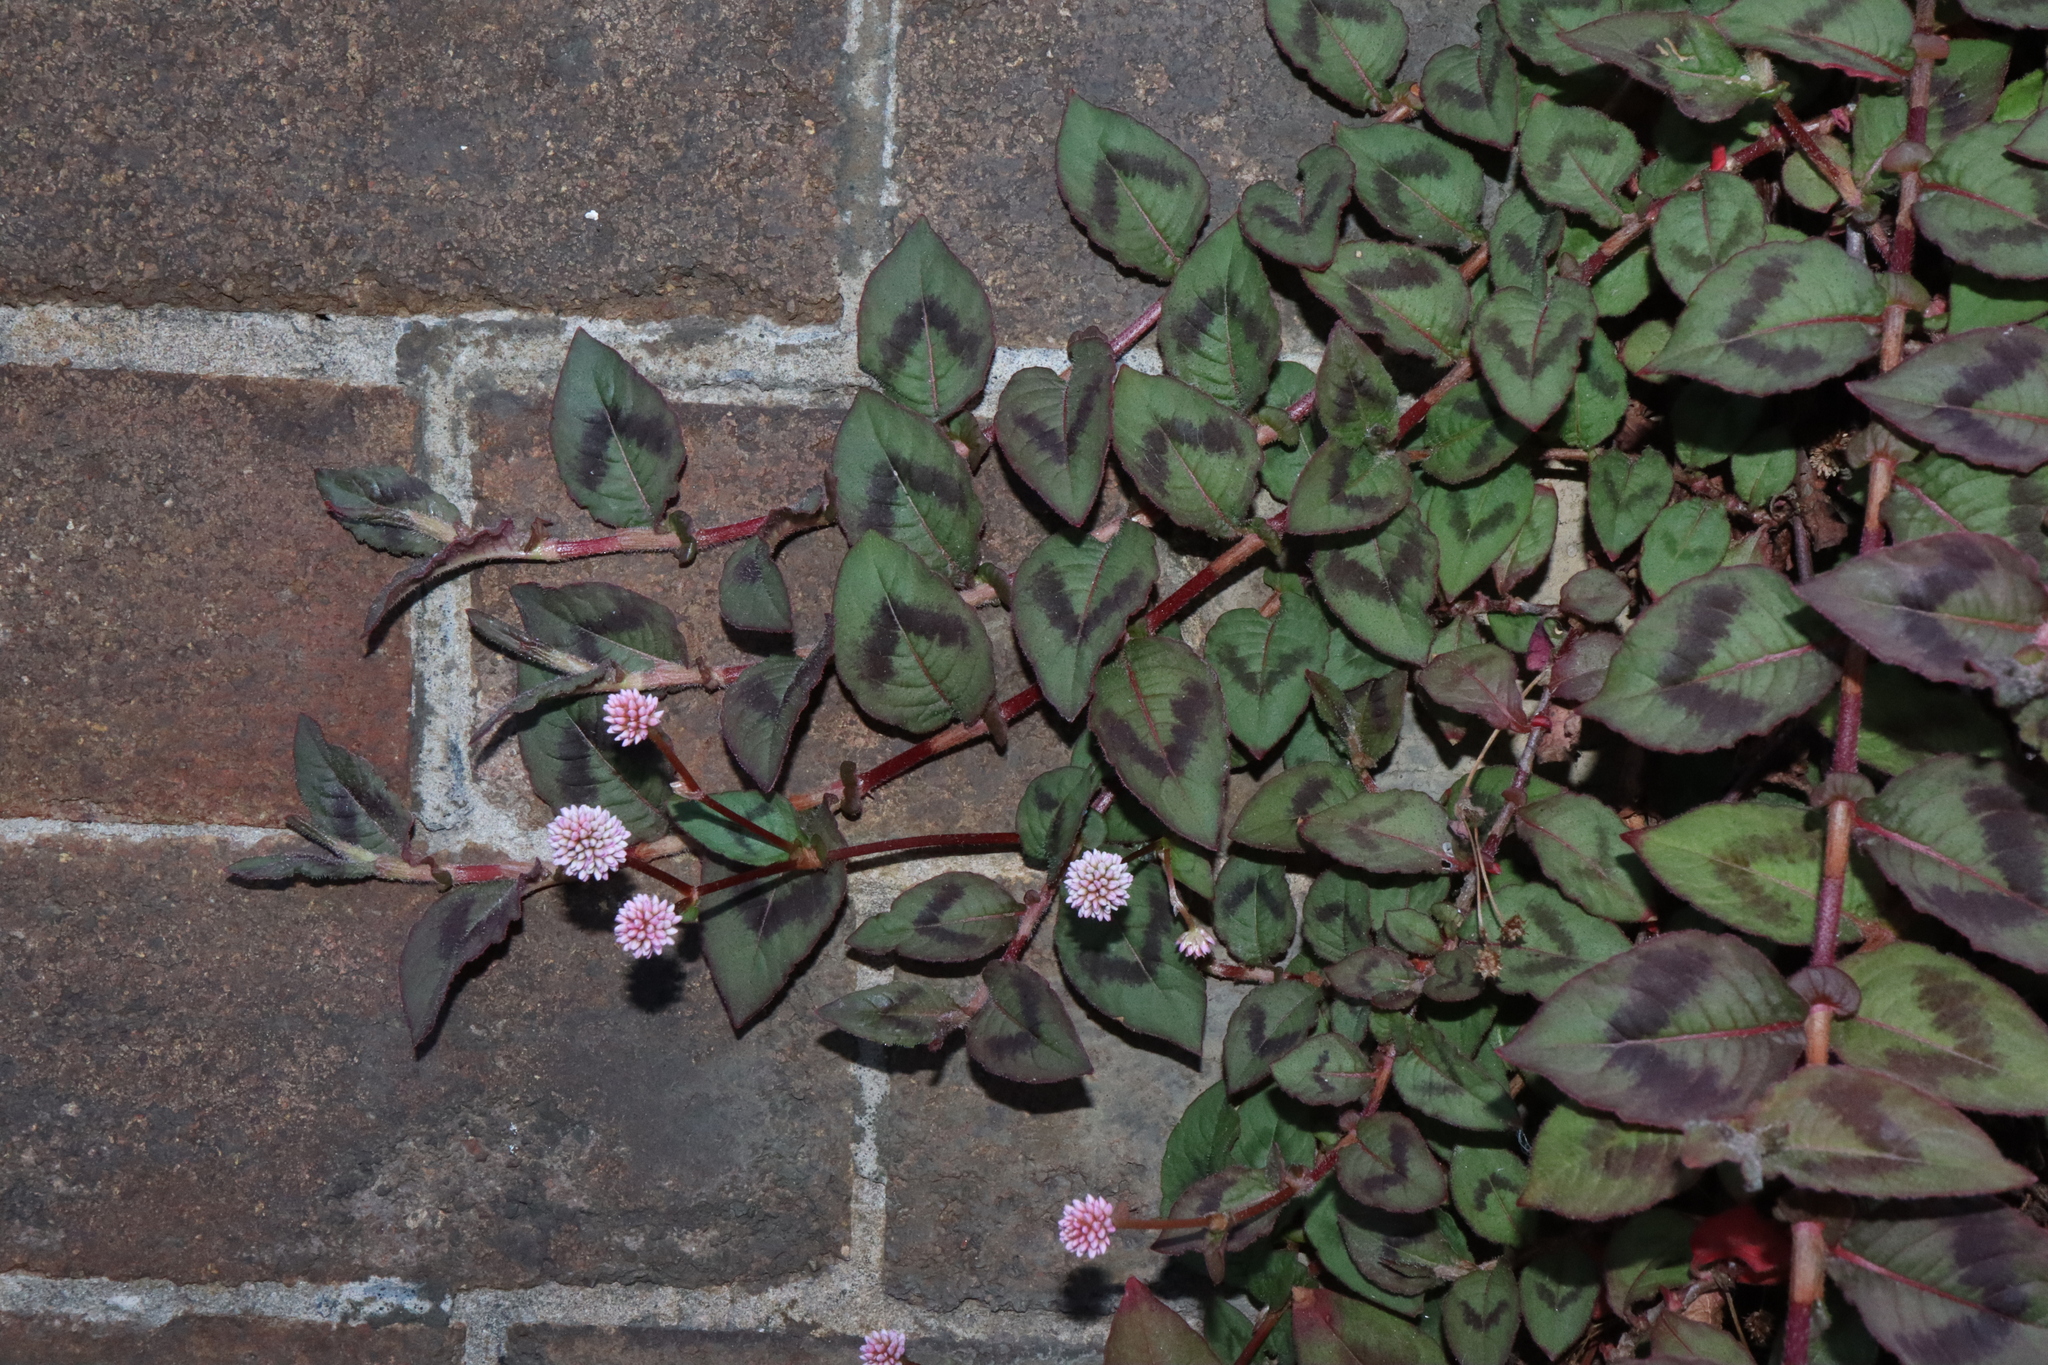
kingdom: Plantae
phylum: Tracheophyta
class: Magnoliopsida
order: Caryophyllales
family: Polygonaceae
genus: Persicaria
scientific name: Persicaria capitata
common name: Pinkhead smartweed
